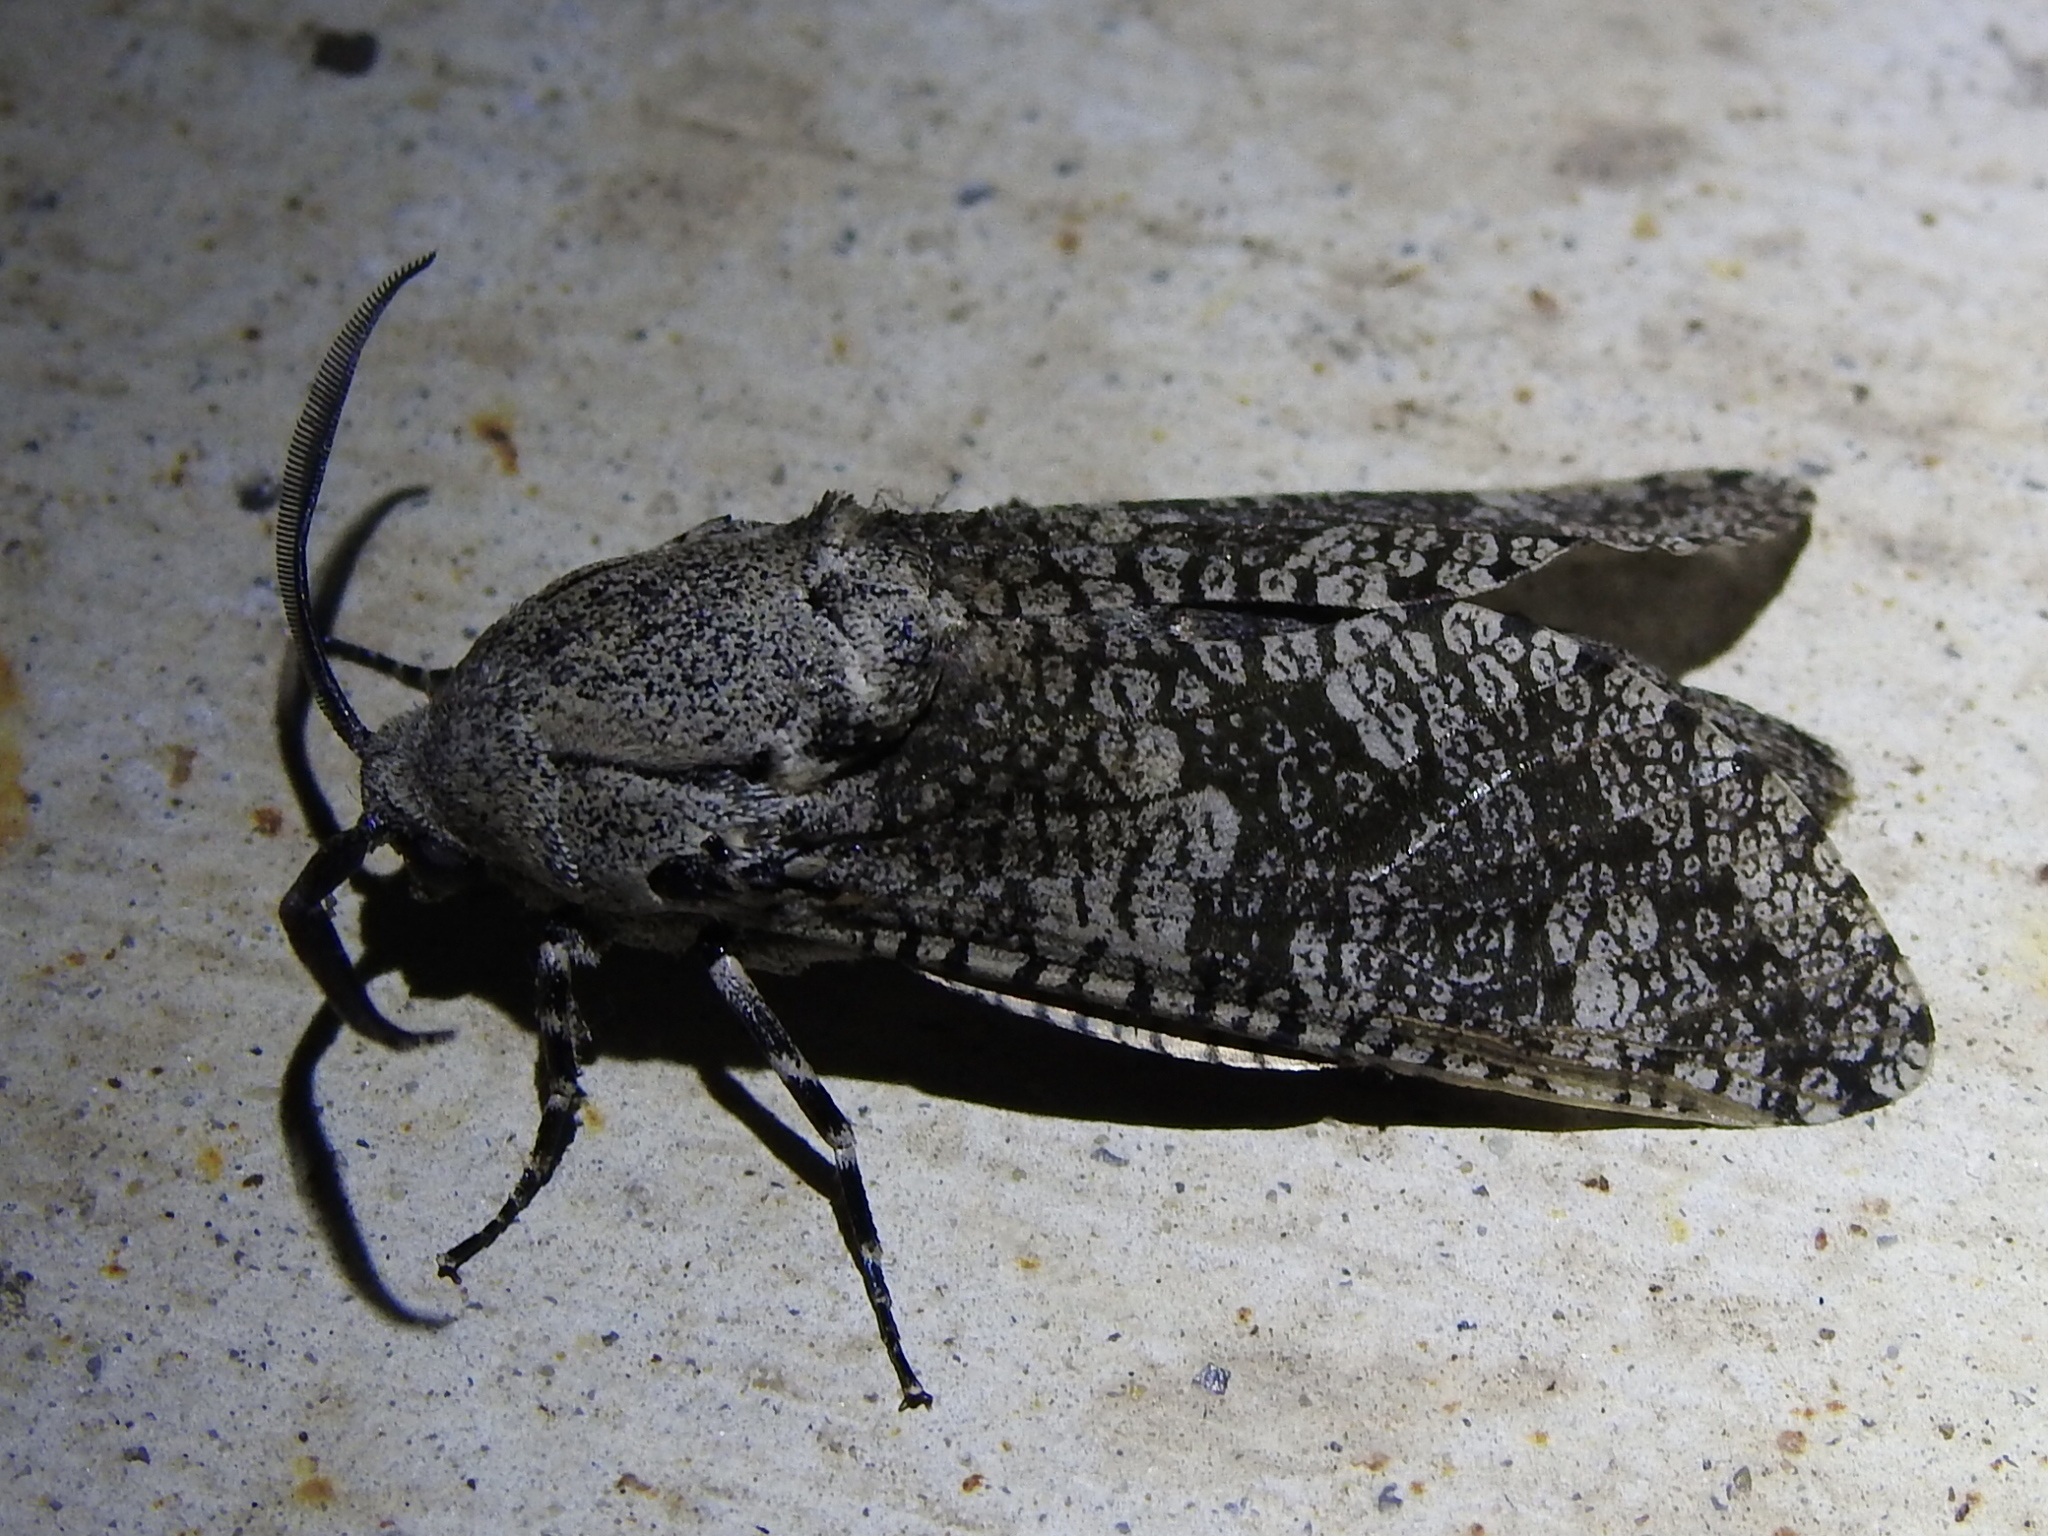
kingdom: Animalia
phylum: Arthropoda
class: Insecta
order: Lepidoptera
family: Cossidae
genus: Prionoxystus
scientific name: Prionoxystus robiniae
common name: Carpenterworm
